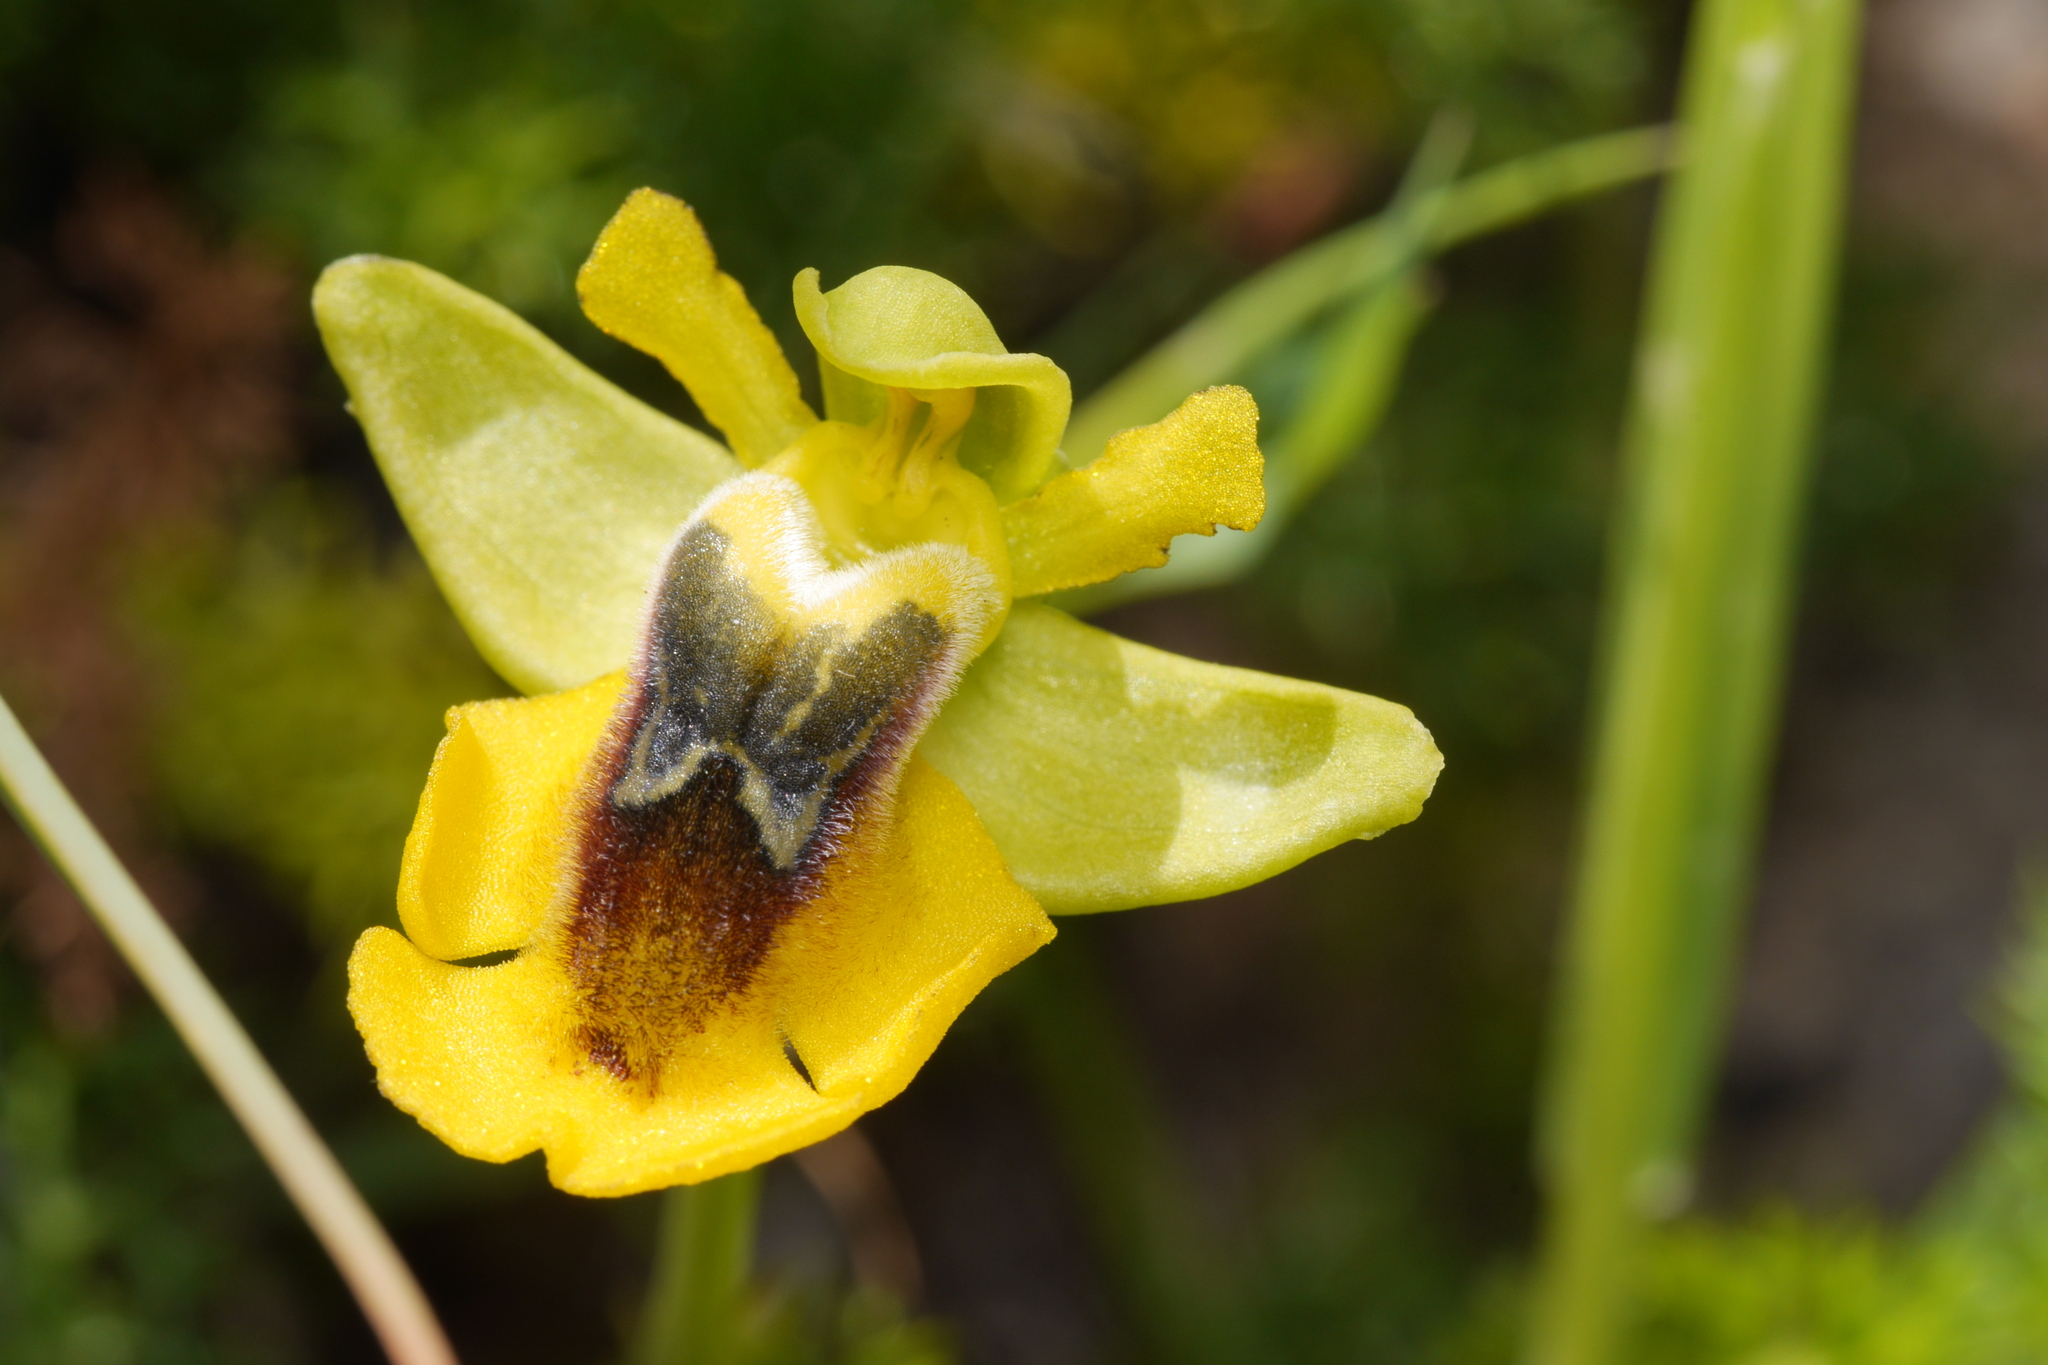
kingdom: Plantae
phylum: Tracheophyta
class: Liliopsida
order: Asparagales
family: Orchidaceae
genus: Ophrys
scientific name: Ophrys lutea
